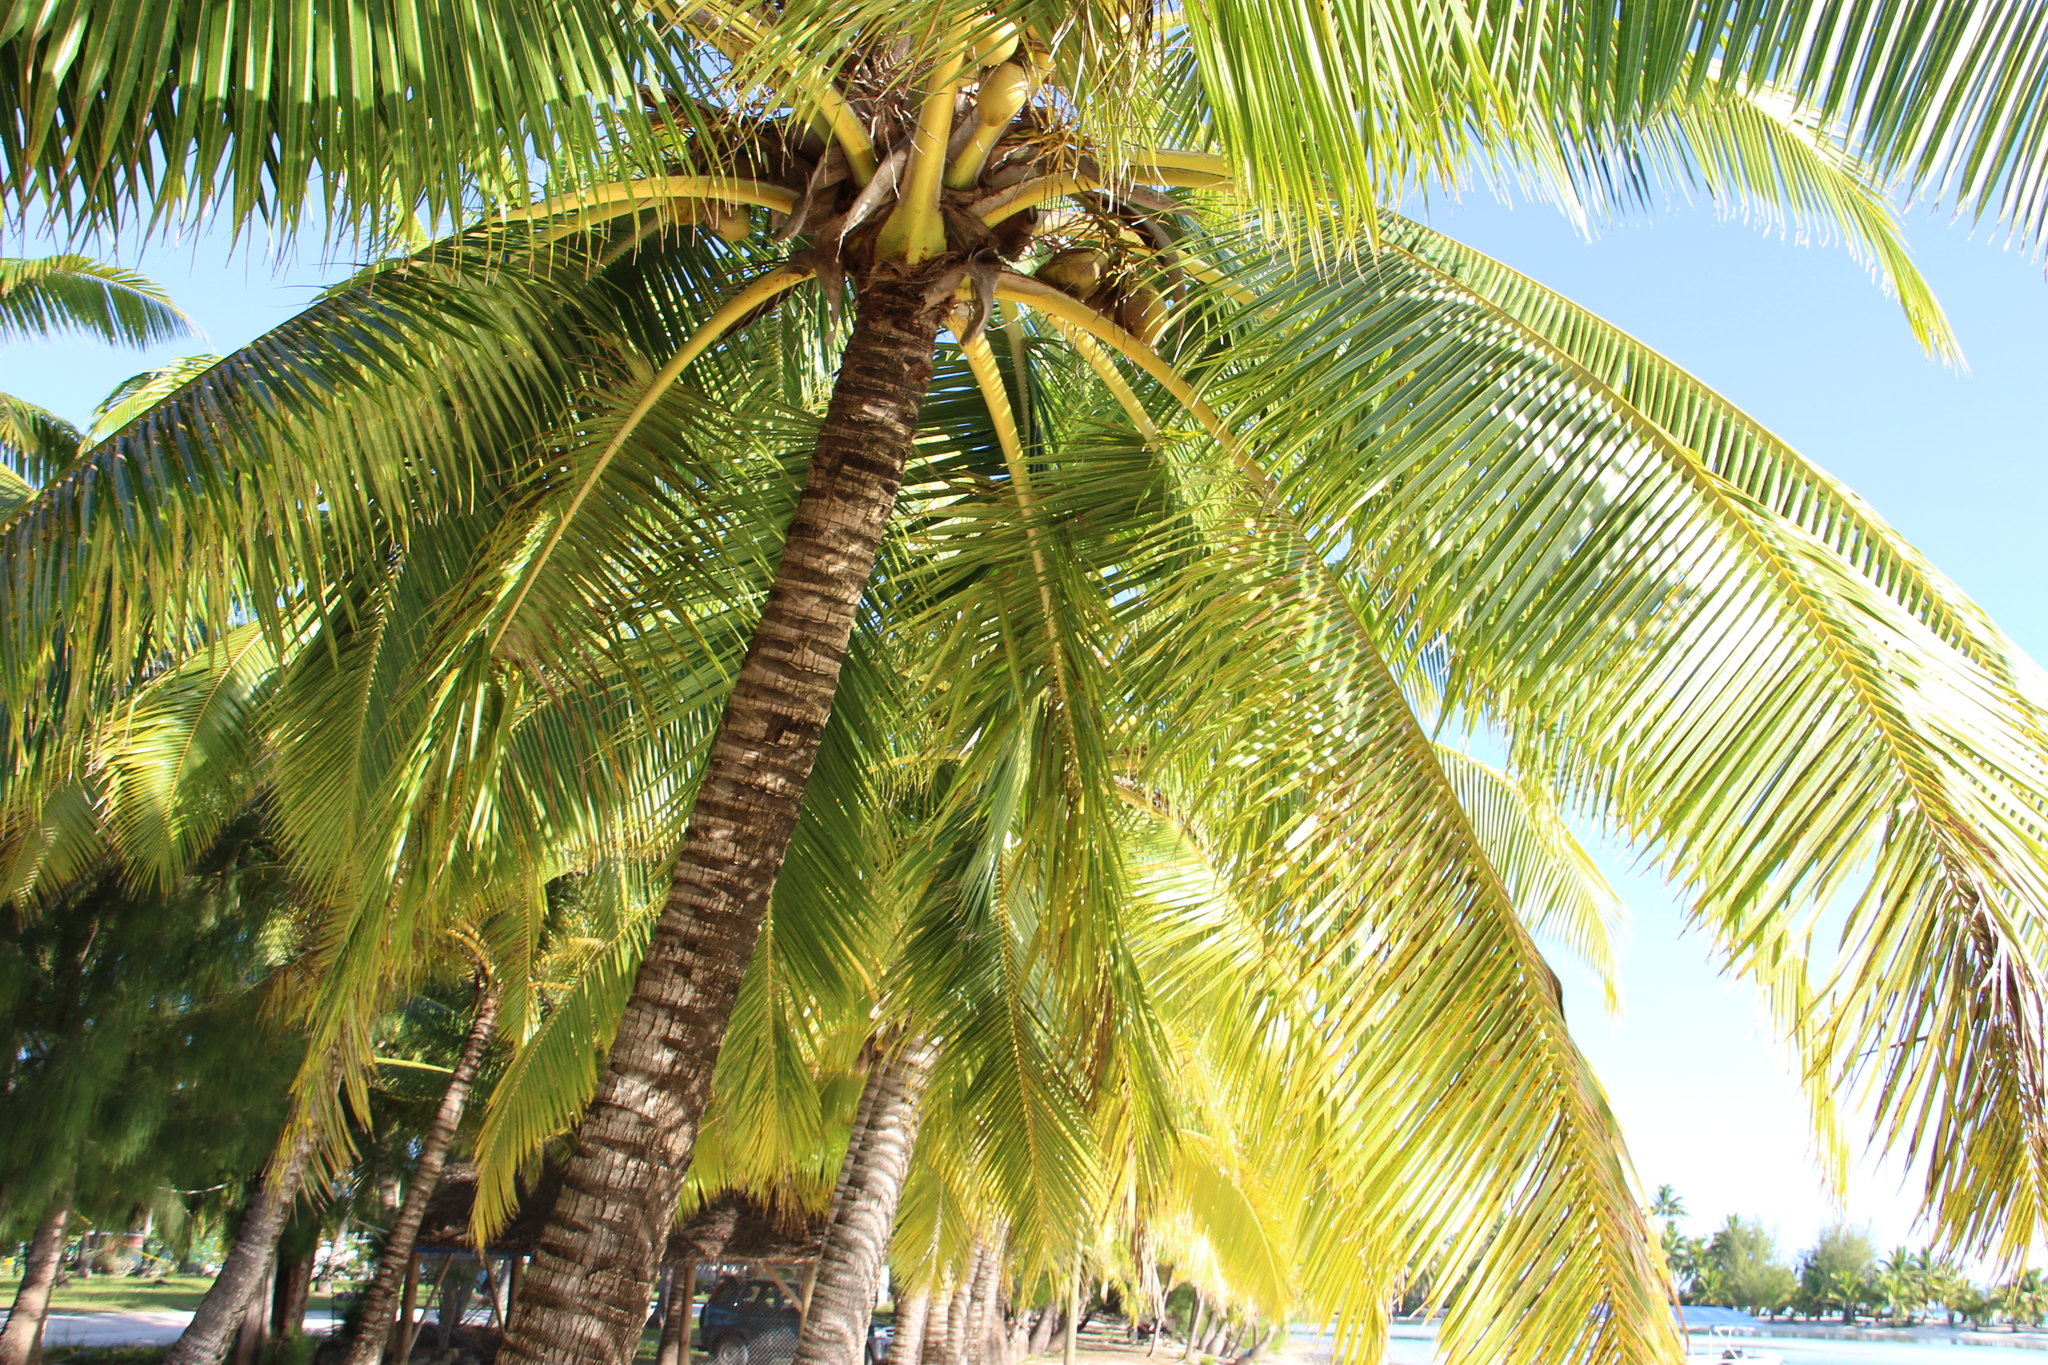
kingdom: Plantae
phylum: Tracheophyta
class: Liliopsida
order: Arecales
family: Arecaceae
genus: Cocos
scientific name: Cocos nucifera
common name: Coconut palm
